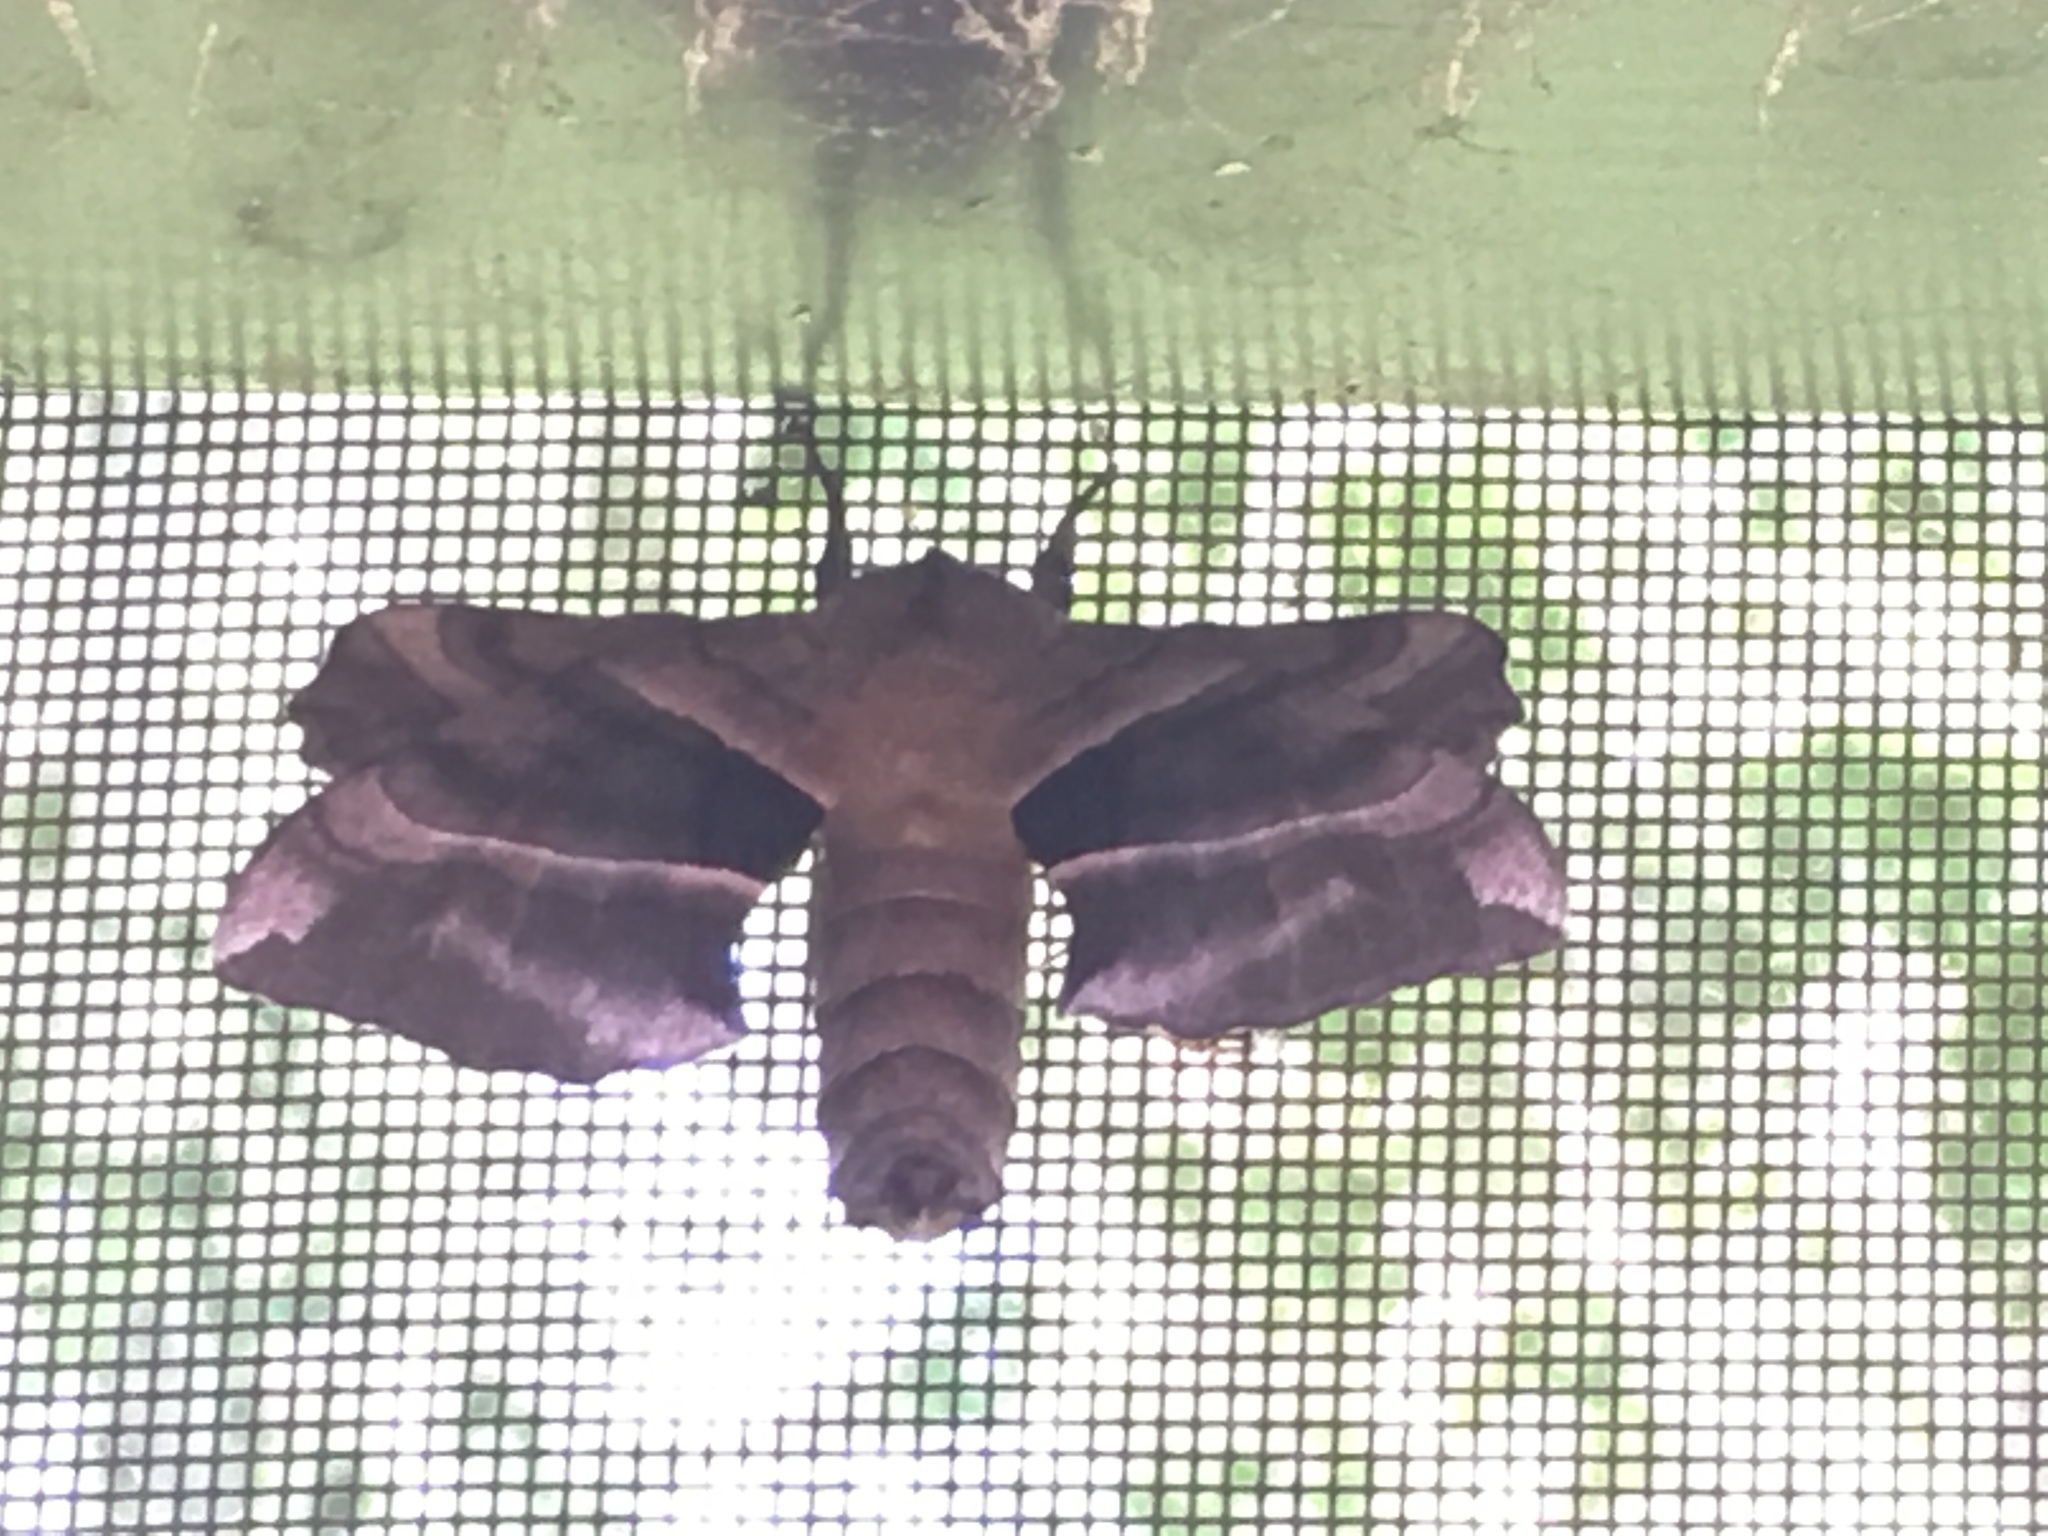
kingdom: Animalia
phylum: Arthropoda
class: Insecta
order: Lepidoptera
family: Sphingidae
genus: Amorpha
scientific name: Amorpha juglandis
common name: Walnut sphinx
